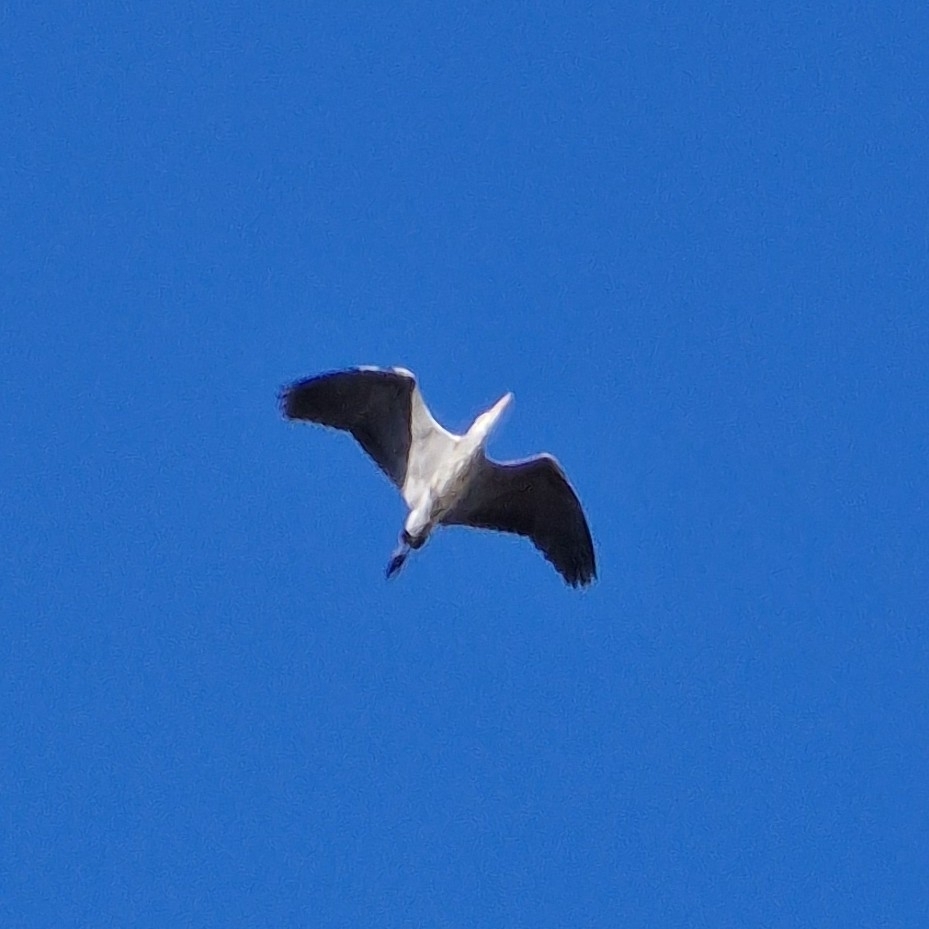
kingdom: Animalia
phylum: Chordata
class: Aves
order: Pelecaniformes
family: Ardeidae
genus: Ardea
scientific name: Ardea cinerea
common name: Grey heron
